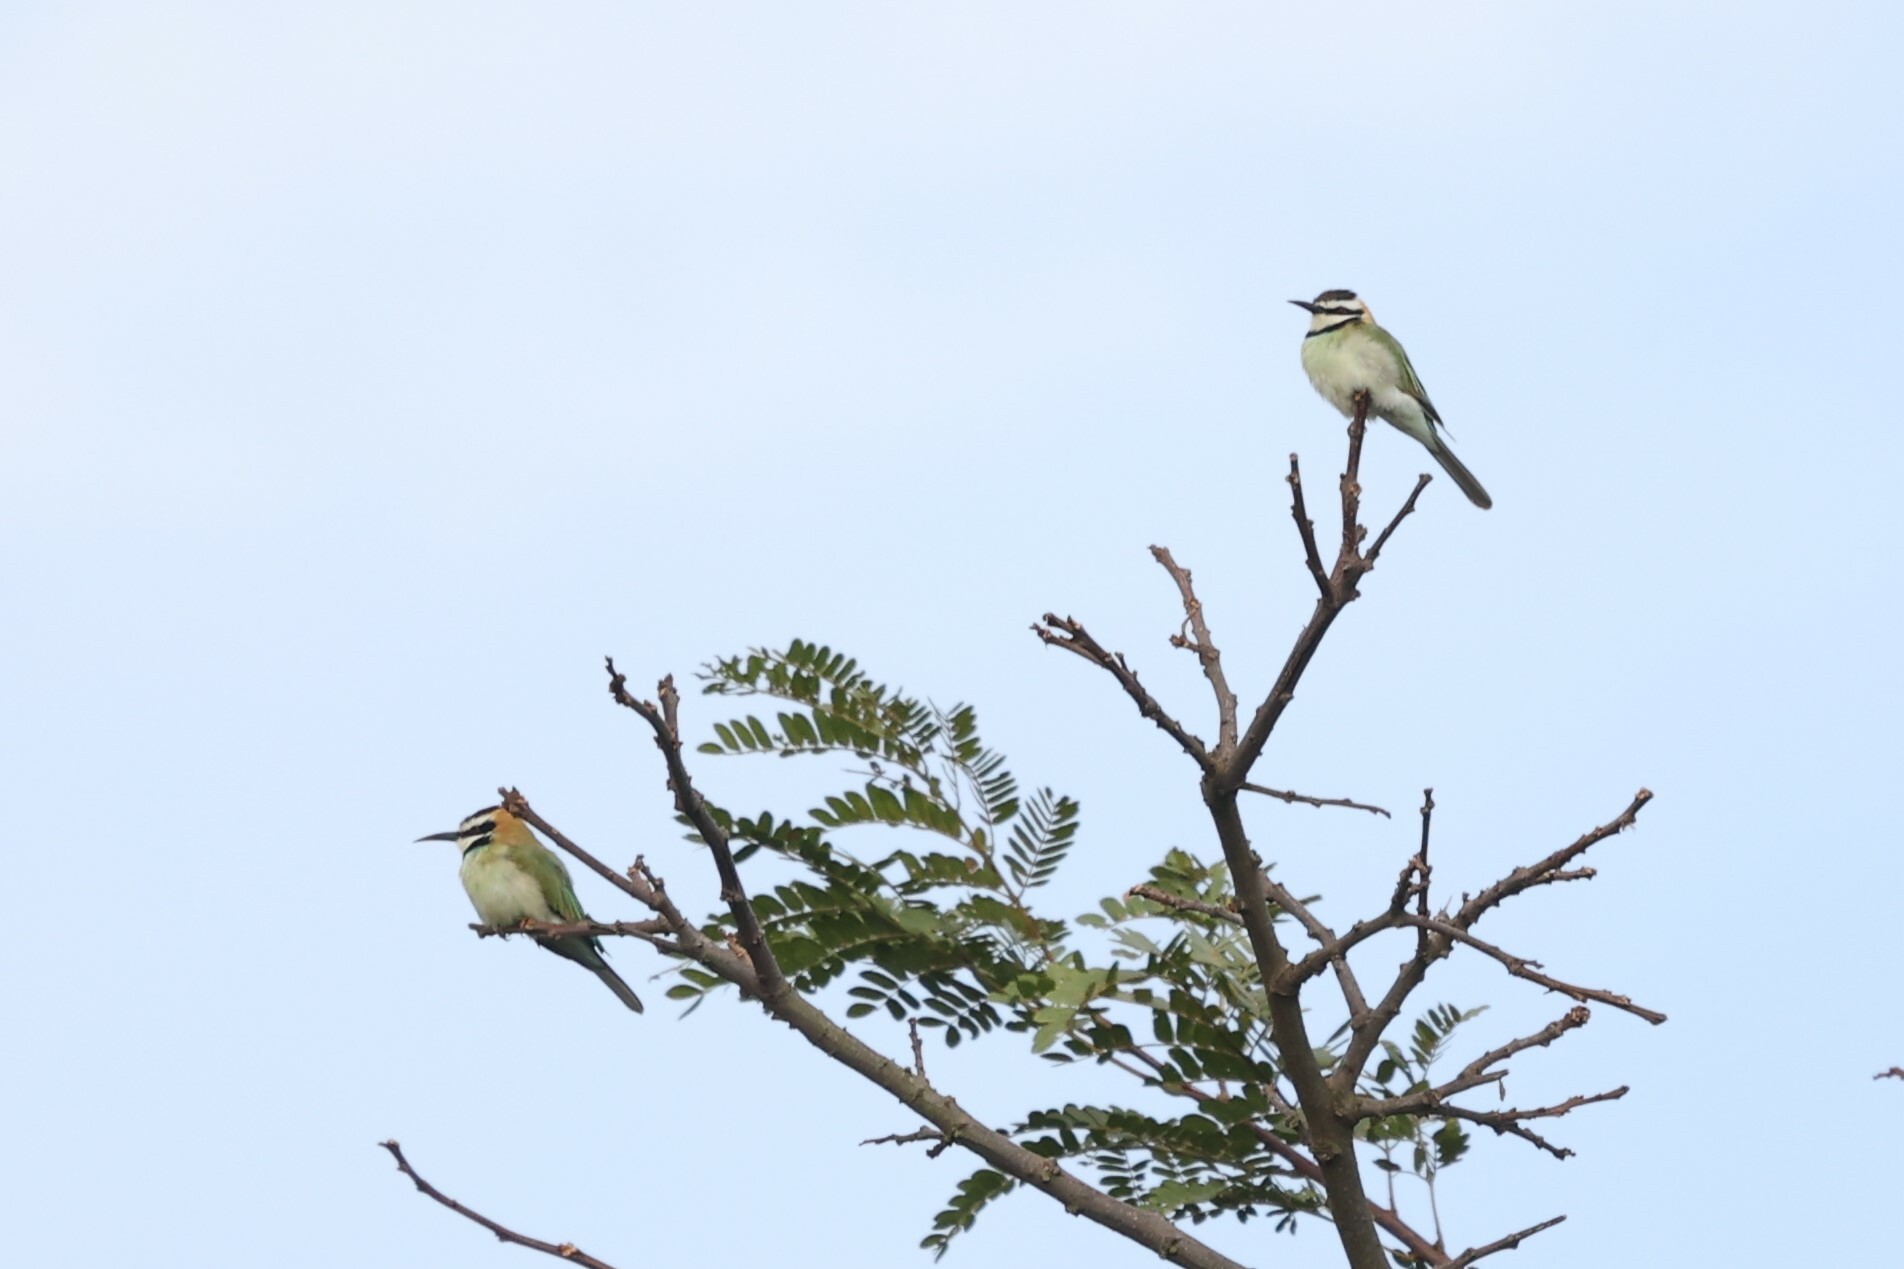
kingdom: Animalia
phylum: Chordata
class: Aves
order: Coraciiformes
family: Meropidae
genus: Merops
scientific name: Merops albicollis
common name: White-throated bee-eater
